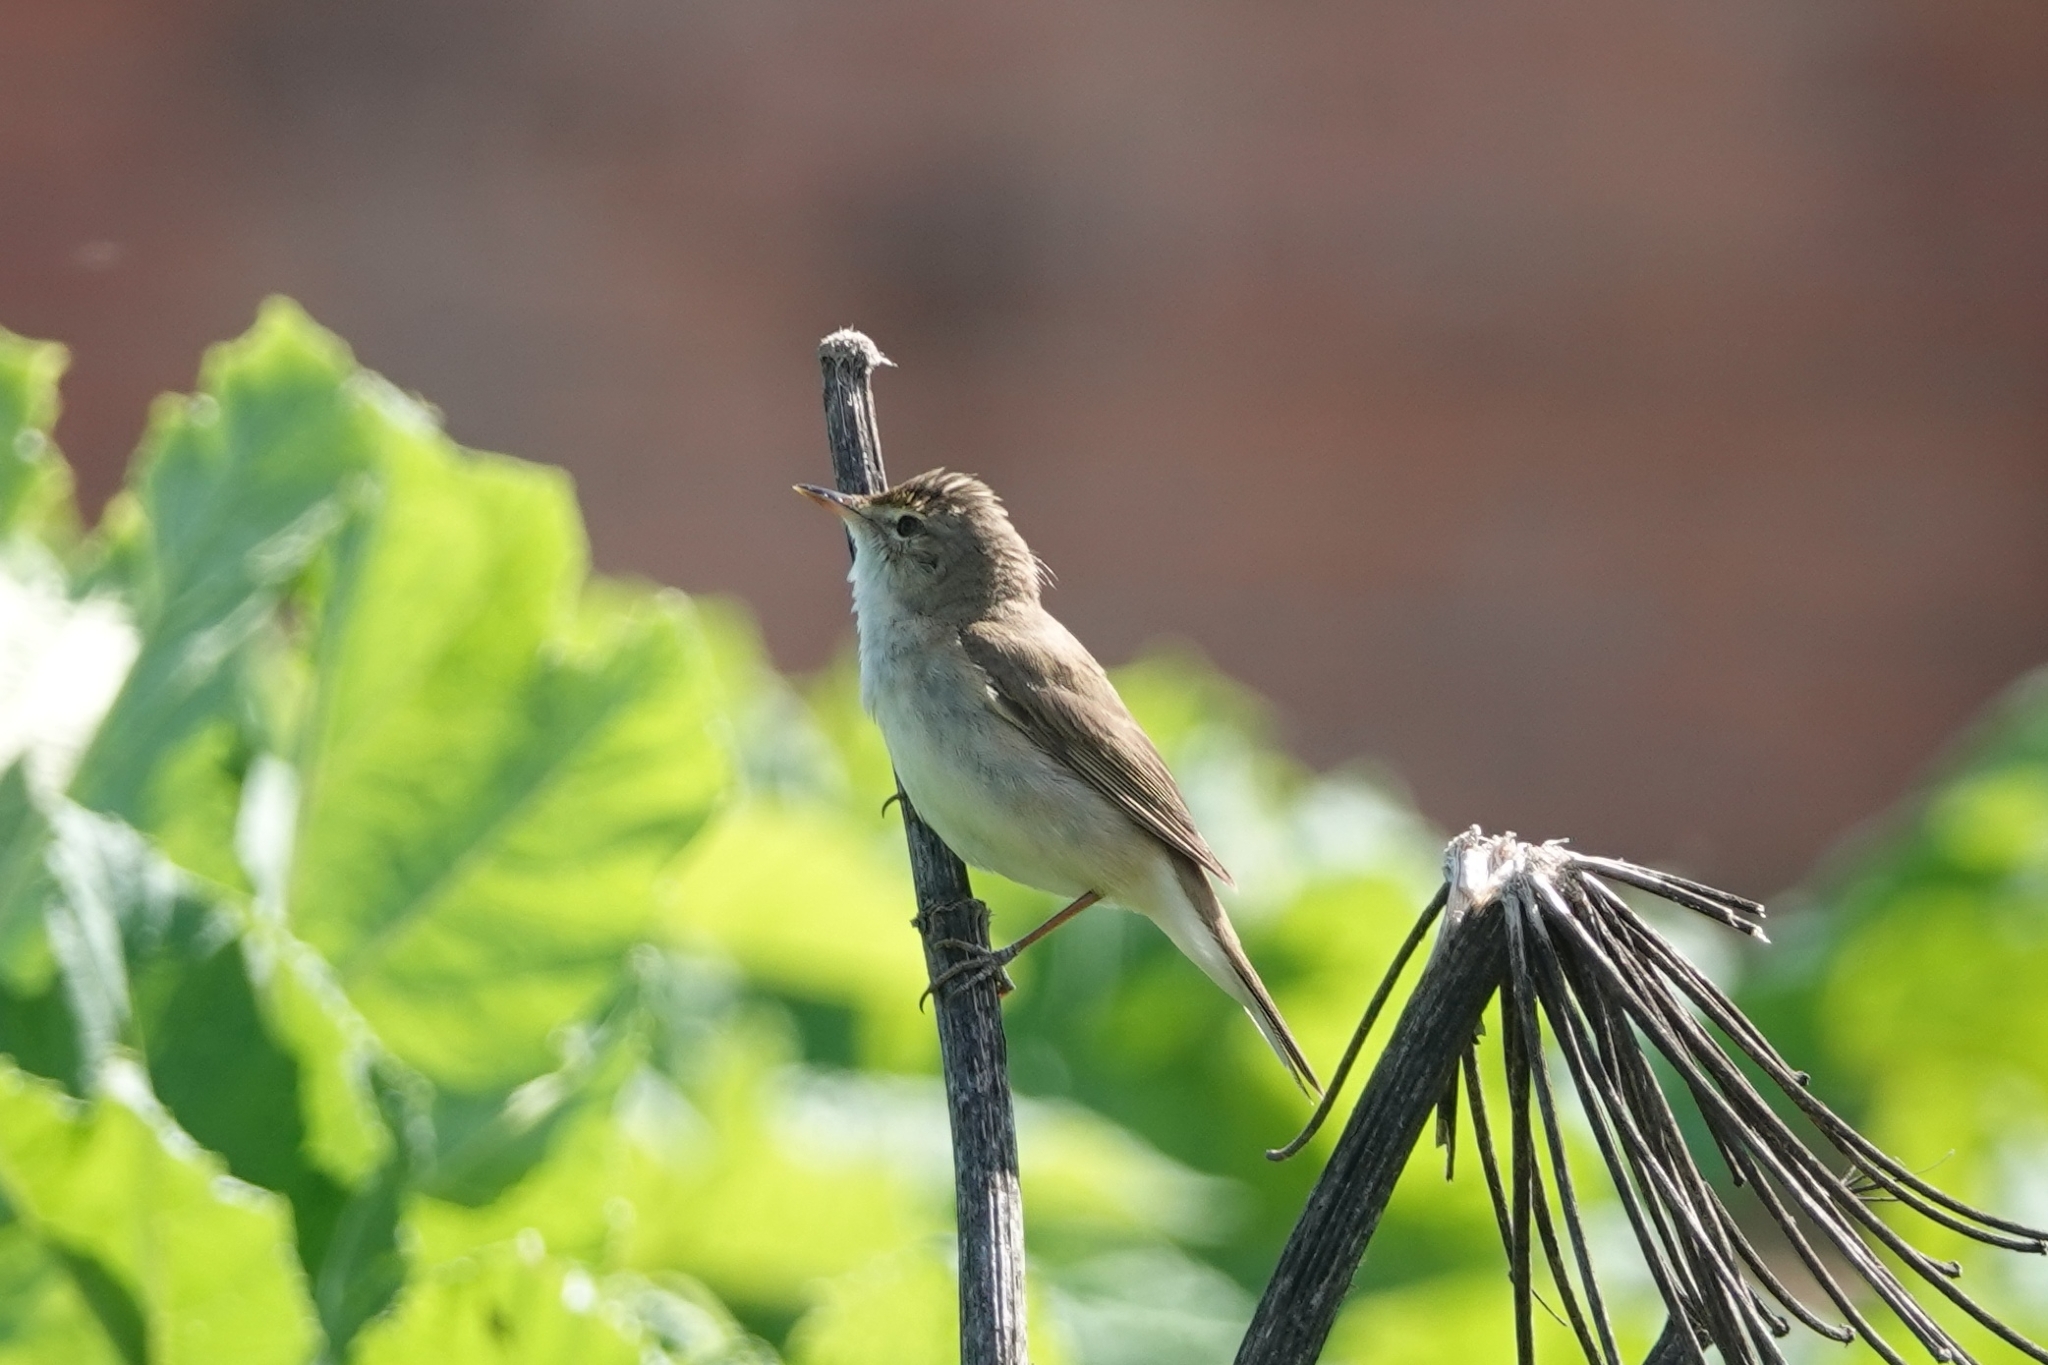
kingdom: Animalia
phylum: Chordata
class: Aves
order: Passeriformes
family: Acrocephalidae
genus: Acrocephalus
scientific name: Acrocephalus palustris
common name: Marsh warbler
